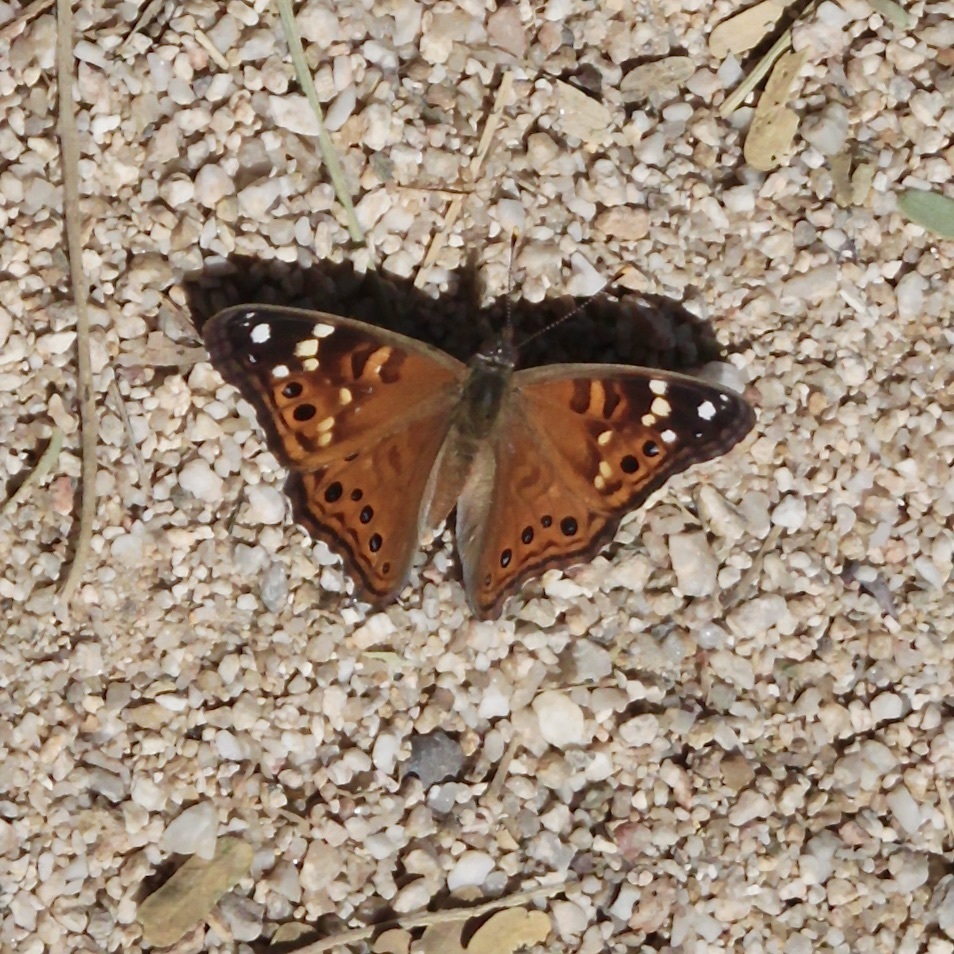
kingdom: Animalia
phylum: Arthropoda
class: Insecta
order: Lepidoptera
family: Nymphalidae
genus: Asterocampa
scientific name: Asterocampa leilia
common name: Empress leilia
